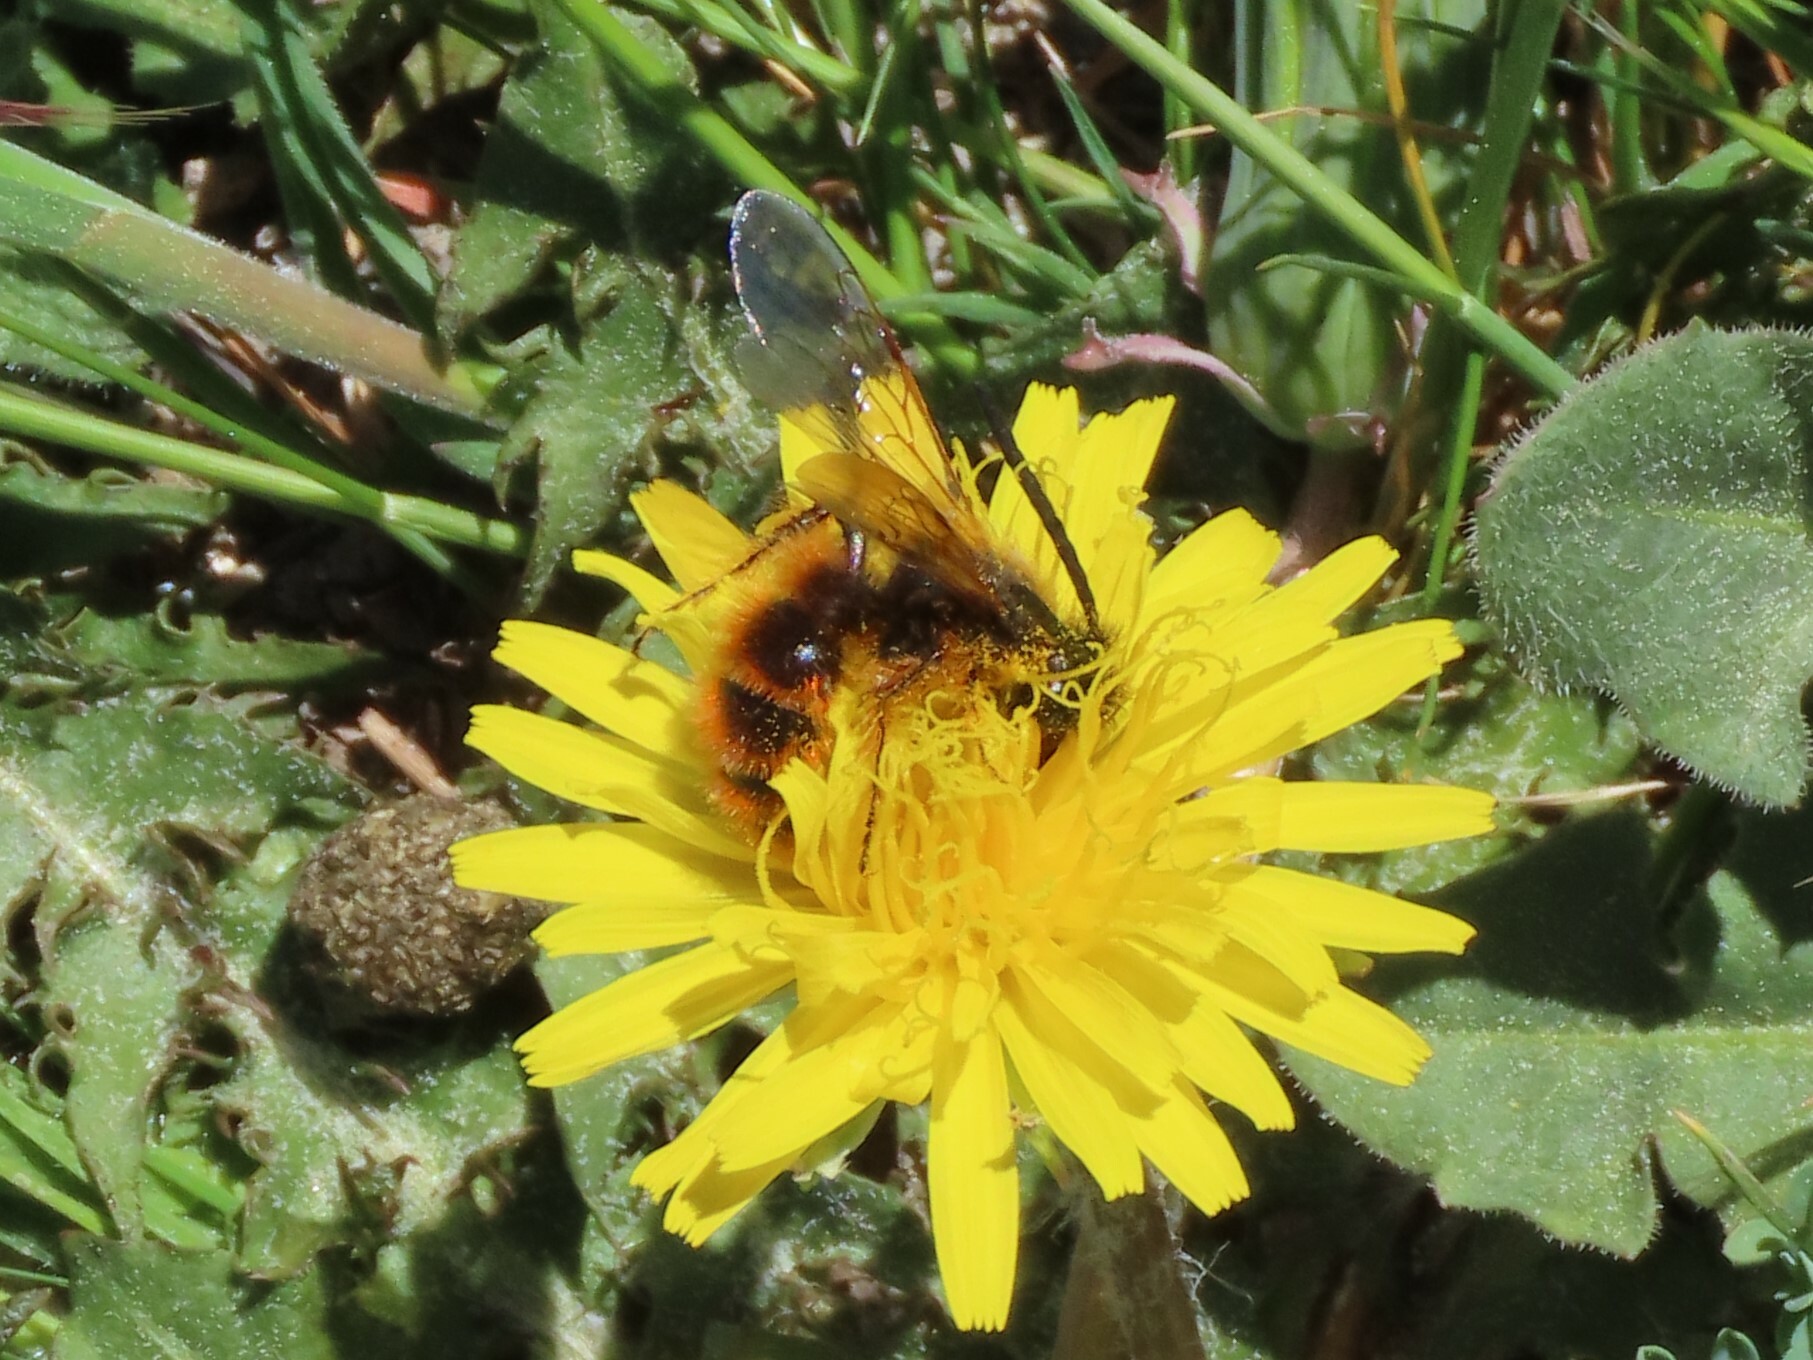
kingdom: Animalia
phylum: Arthropoda
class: Insecta
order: Hymenoptera
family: Scoliidae
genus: Dasyscolia
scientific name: Dasyscolia ciliata
